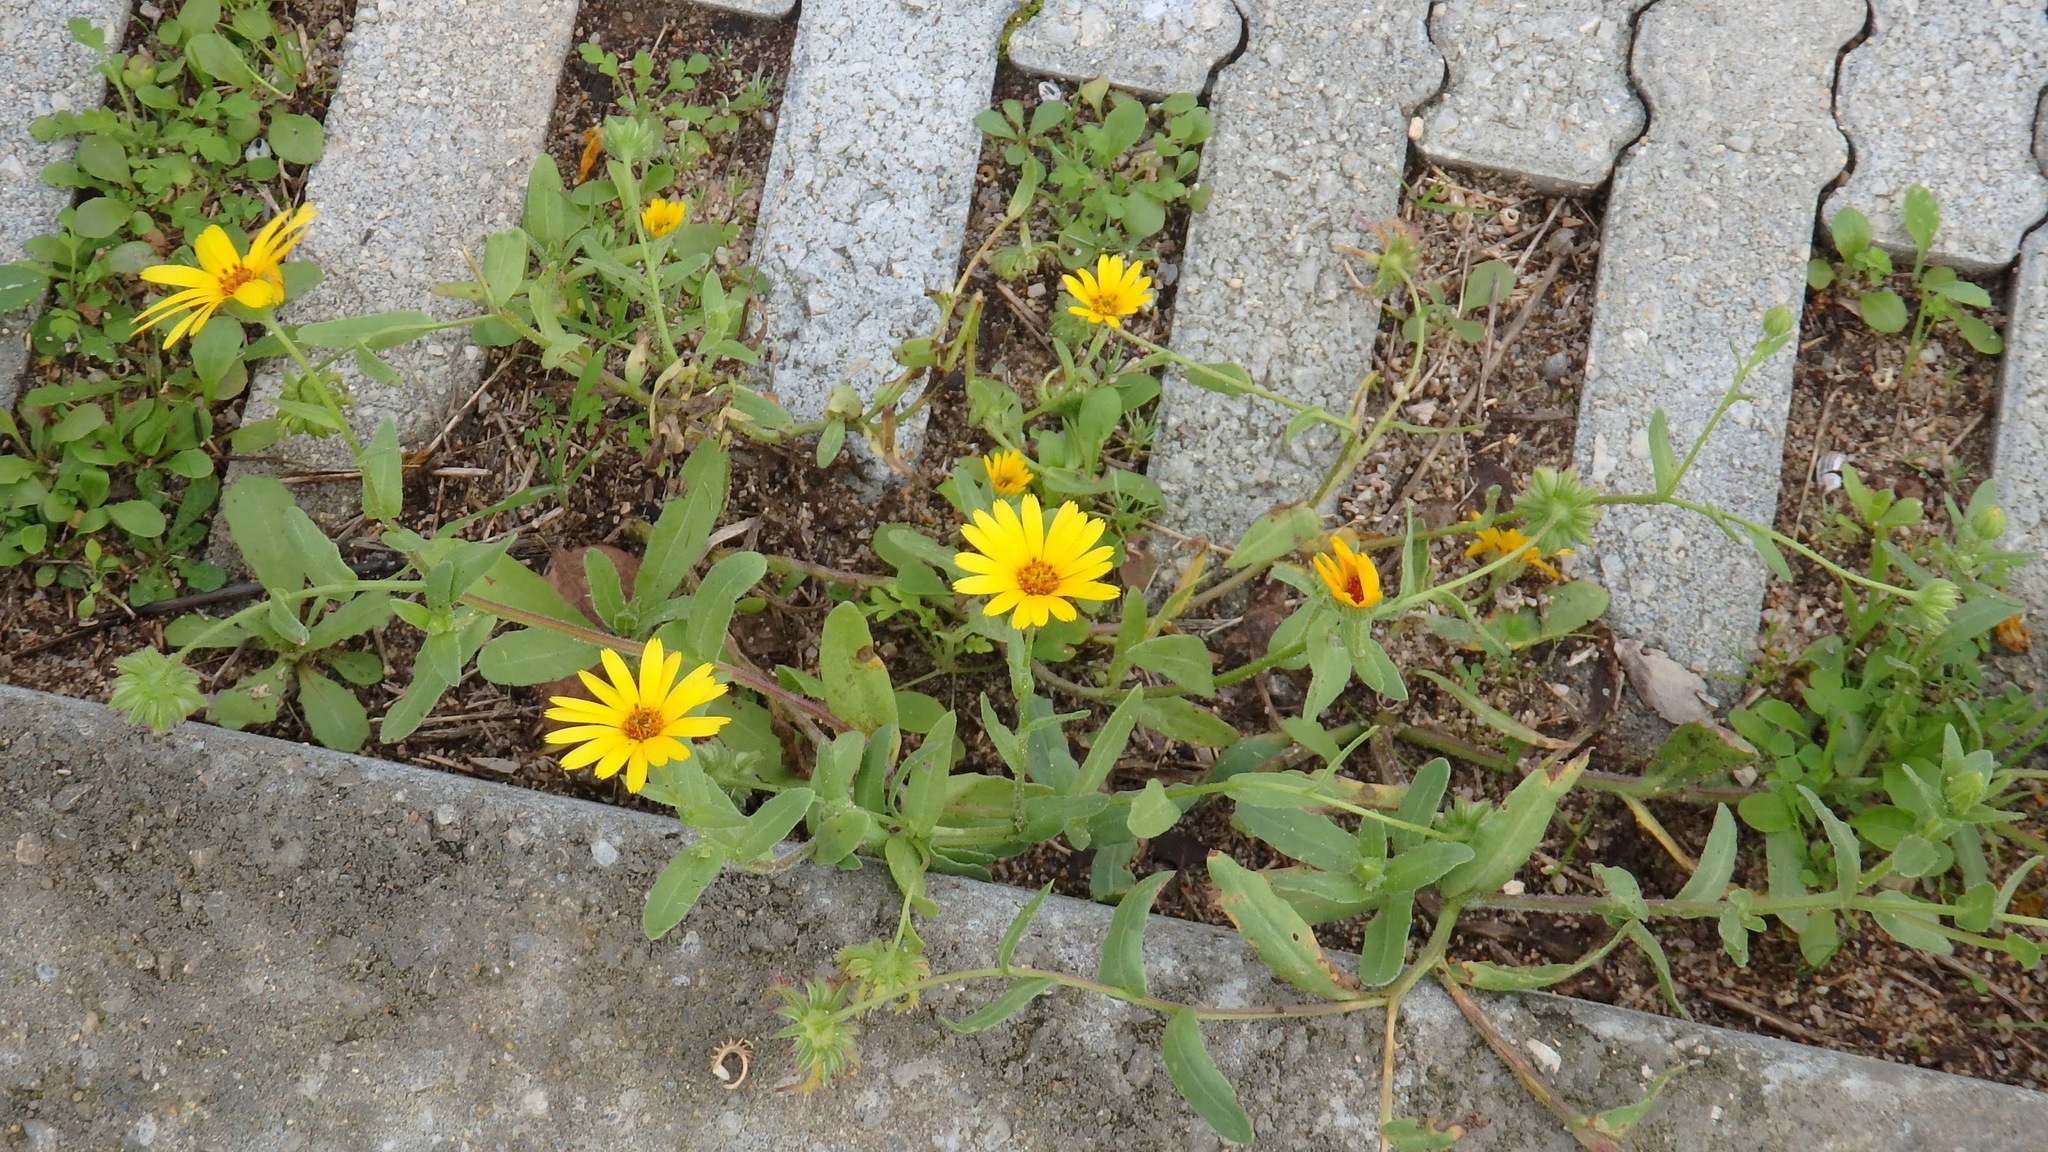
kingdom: Plantae
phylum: Tracheophyta
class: Magnoliopsida
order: Asterales
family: Asteraceae
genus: Calendula
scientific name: Calendula arvensis
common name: Field marigold
